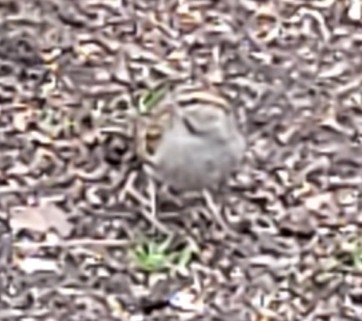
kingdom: Animalia
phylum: Chordata
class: Aves
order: Passeriformes
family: Passerellidae
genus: Spizella
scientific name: Spizella passerina
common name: Chipping sparrow
